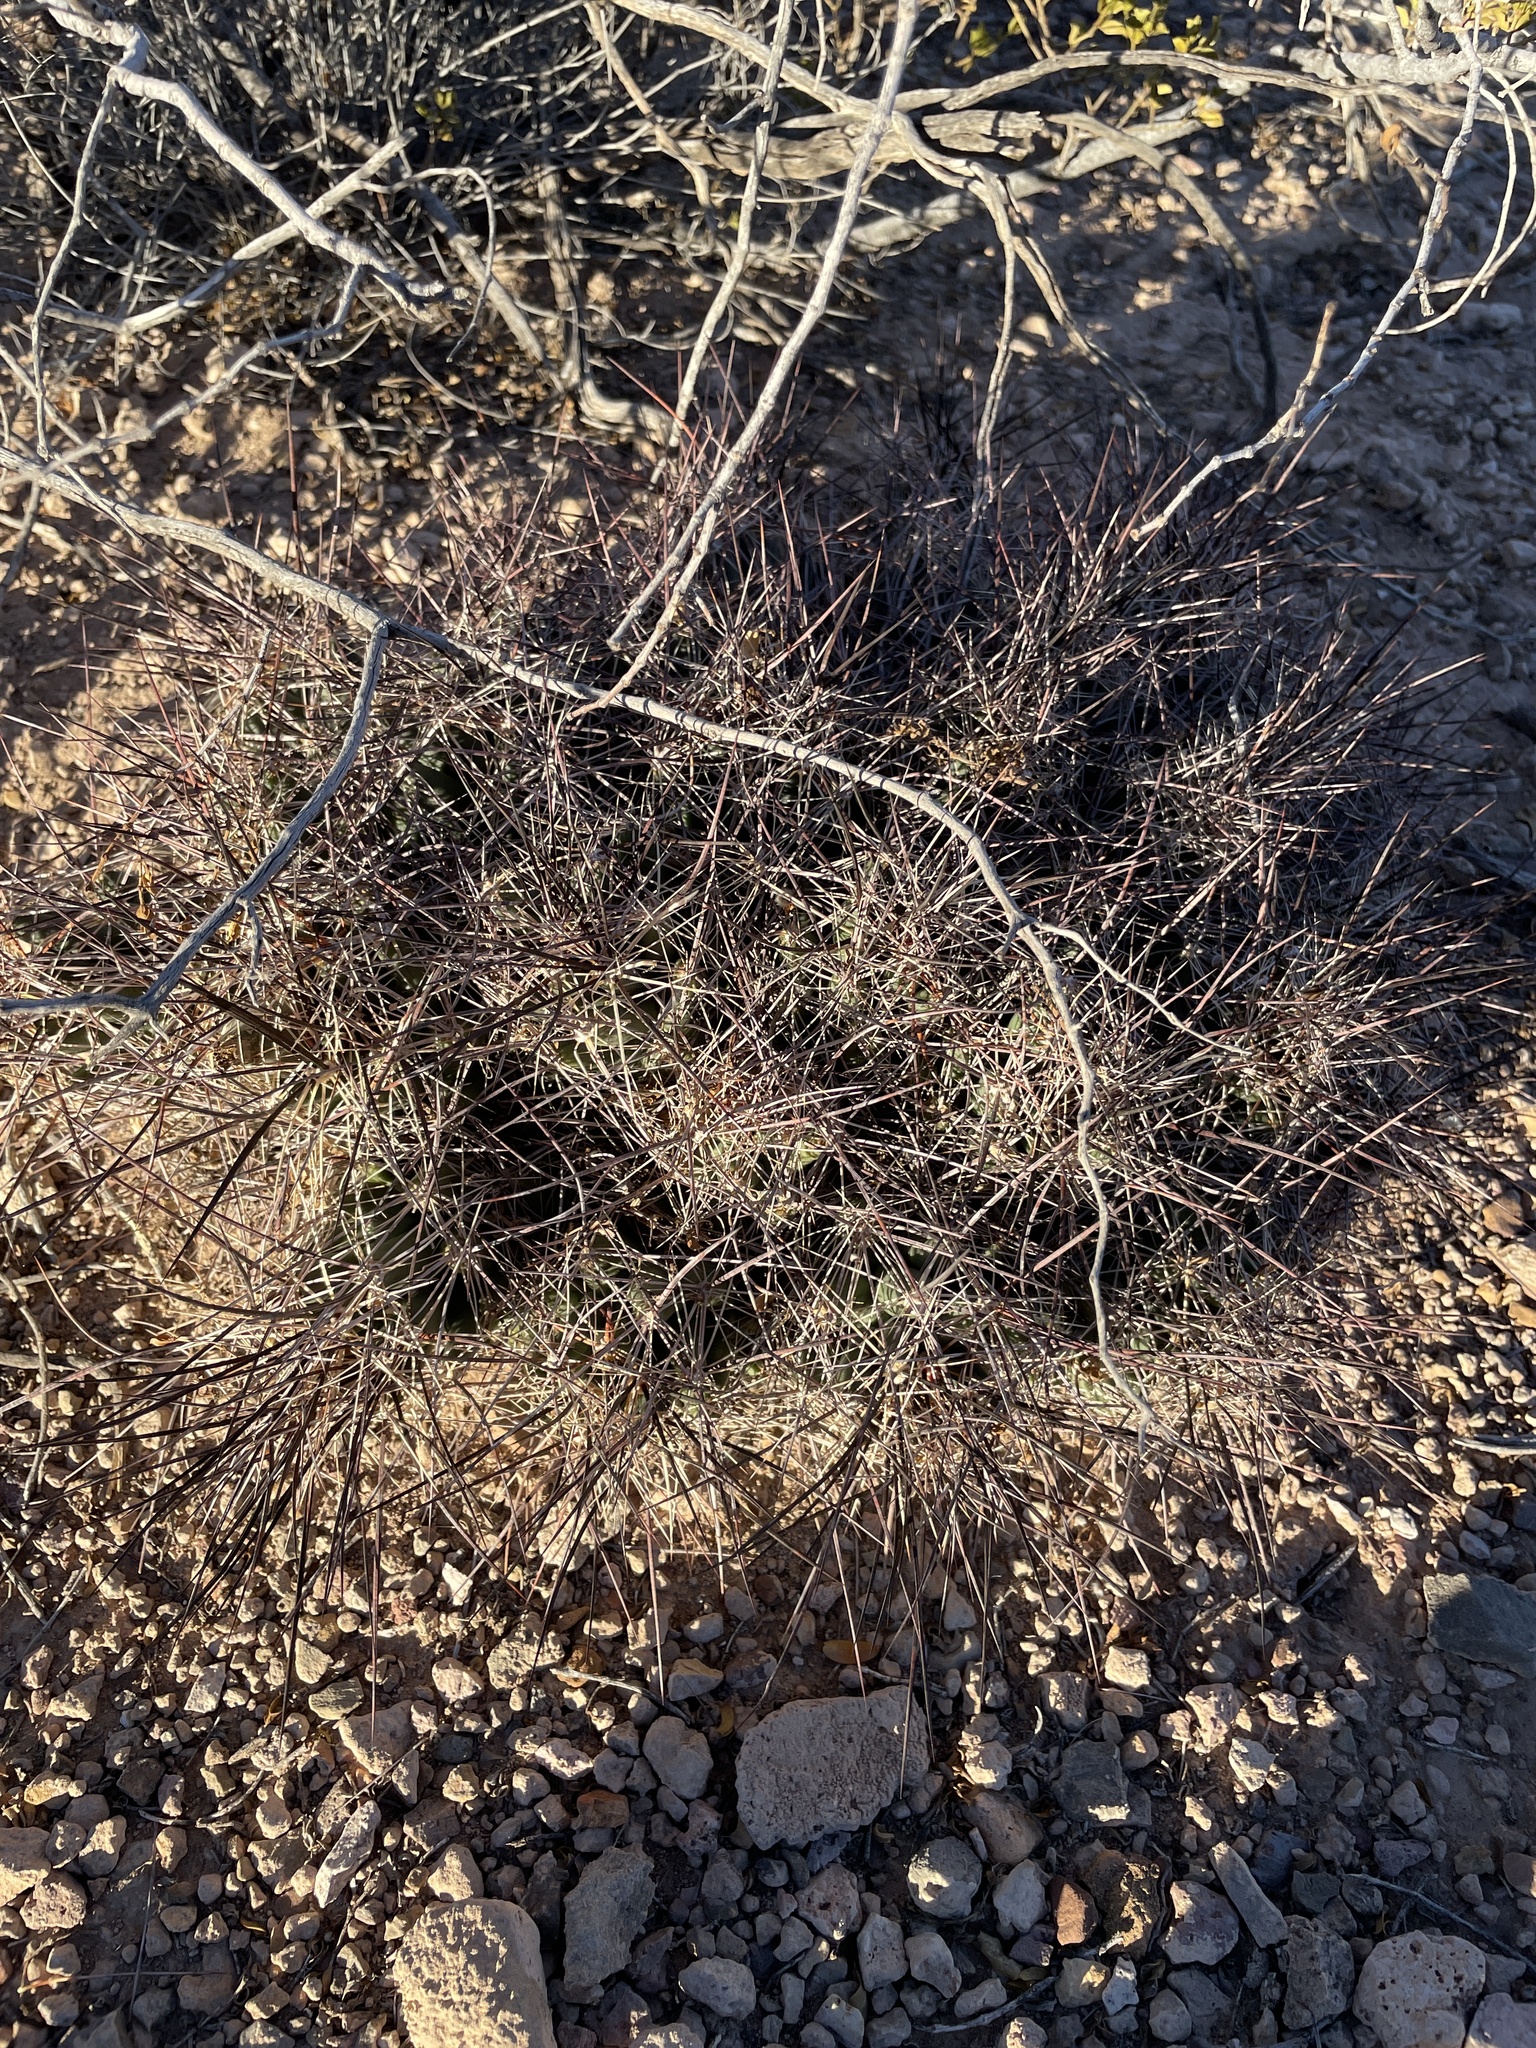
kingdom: Plantae
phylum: Tracheophyta
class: Magnoliopsida
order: Caryophyllales
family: Cactaceae
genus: Coryphantha
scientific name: Coryphantha macromeris
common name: Nipple beehive cactus
